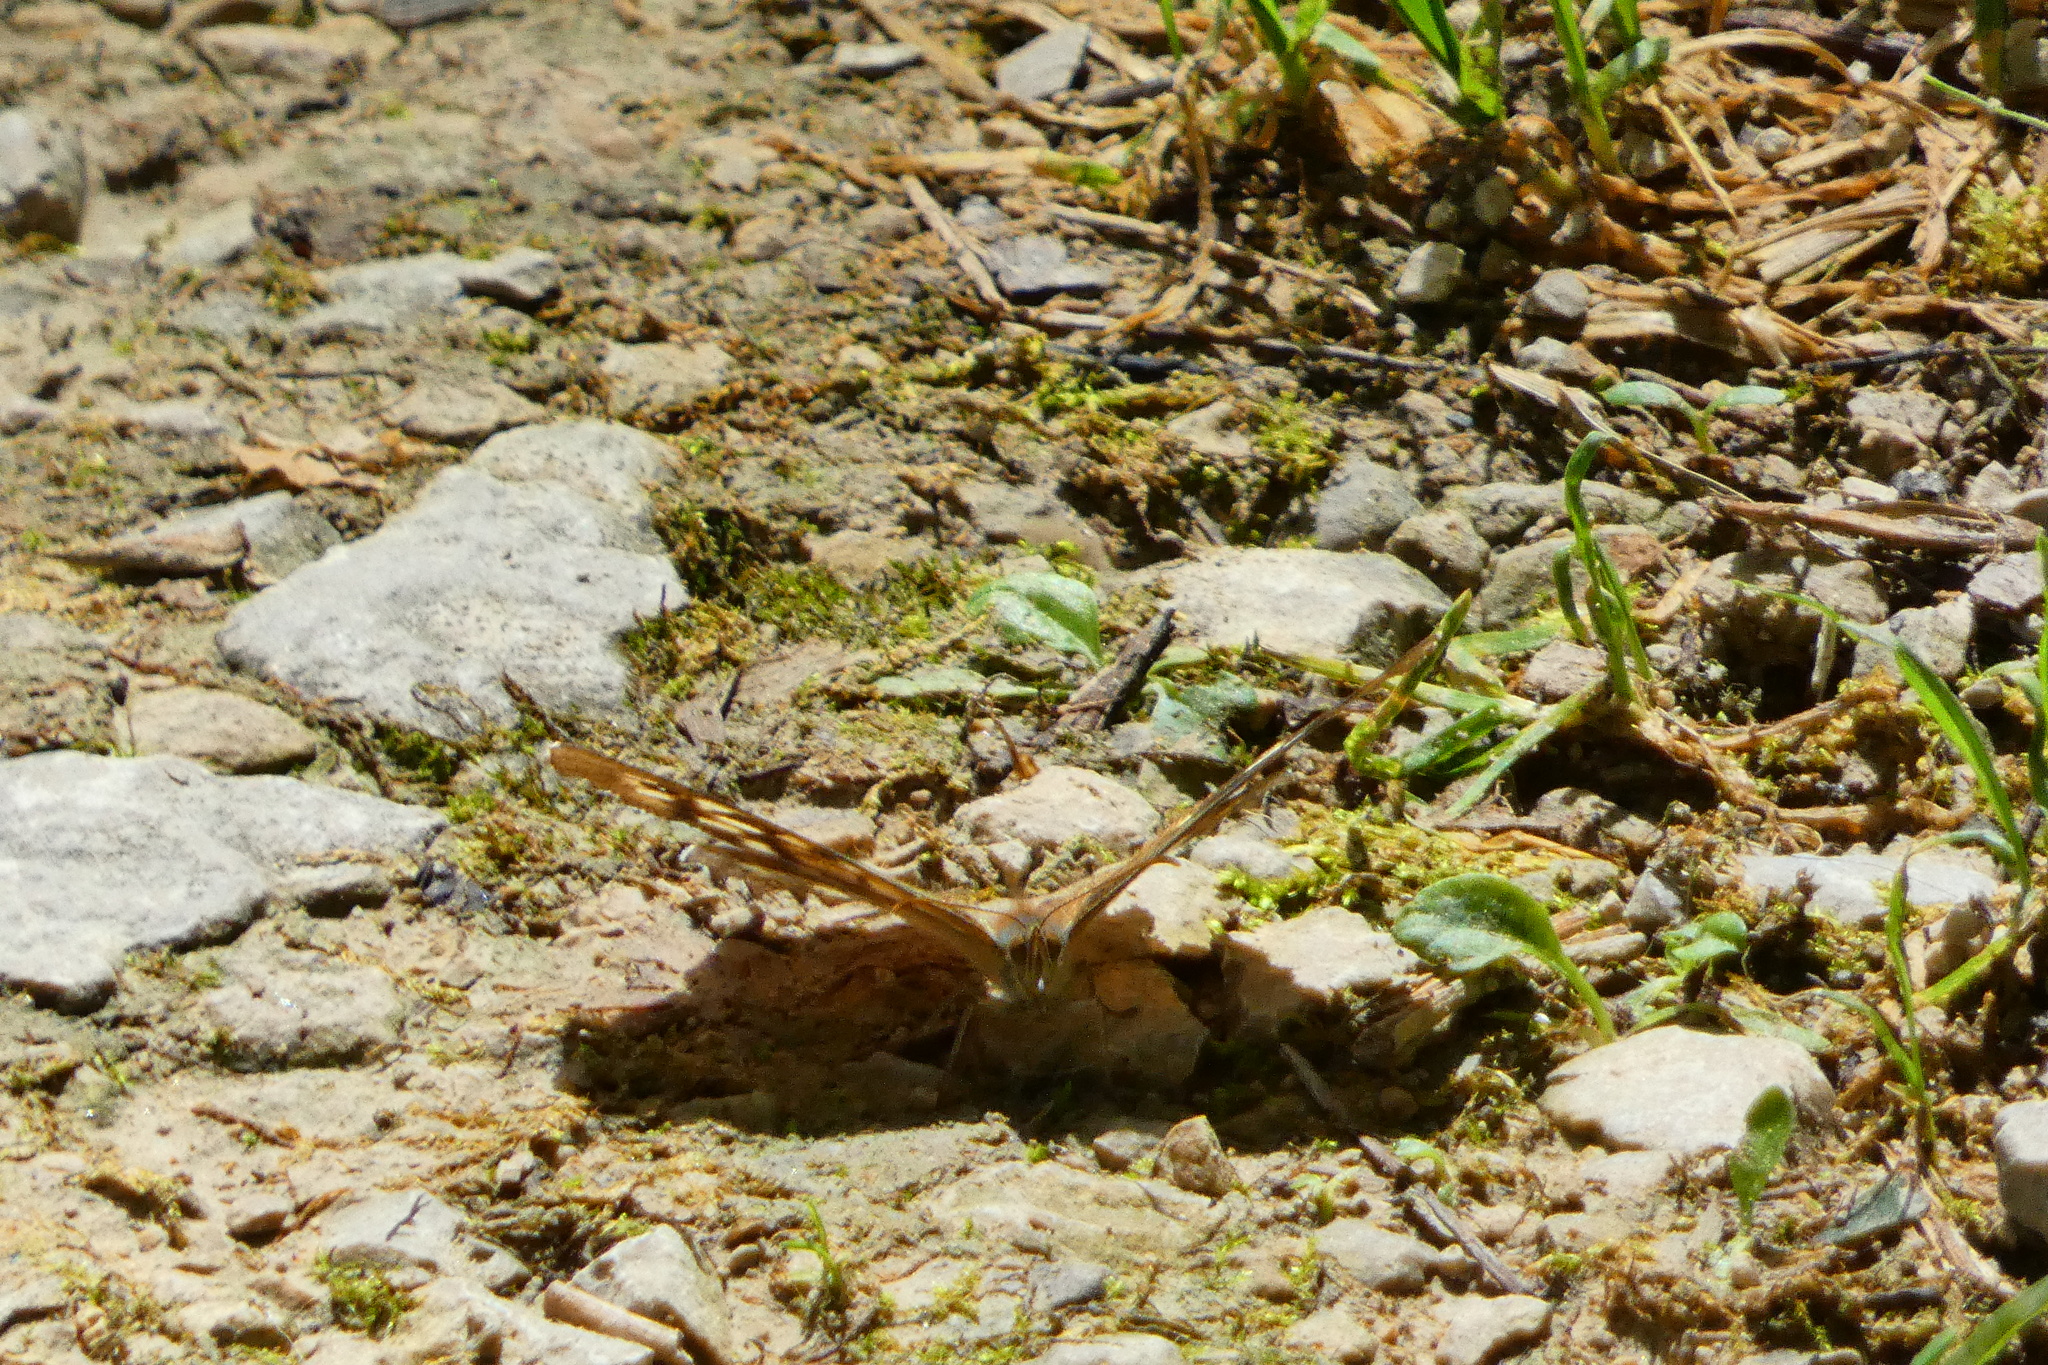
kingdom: Animalia
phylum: Arthropoda
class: Insecta
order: Lepidoptera
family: Nymphalidae
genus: Pararge
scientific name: Pararge aegeria
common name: Speckled wood
